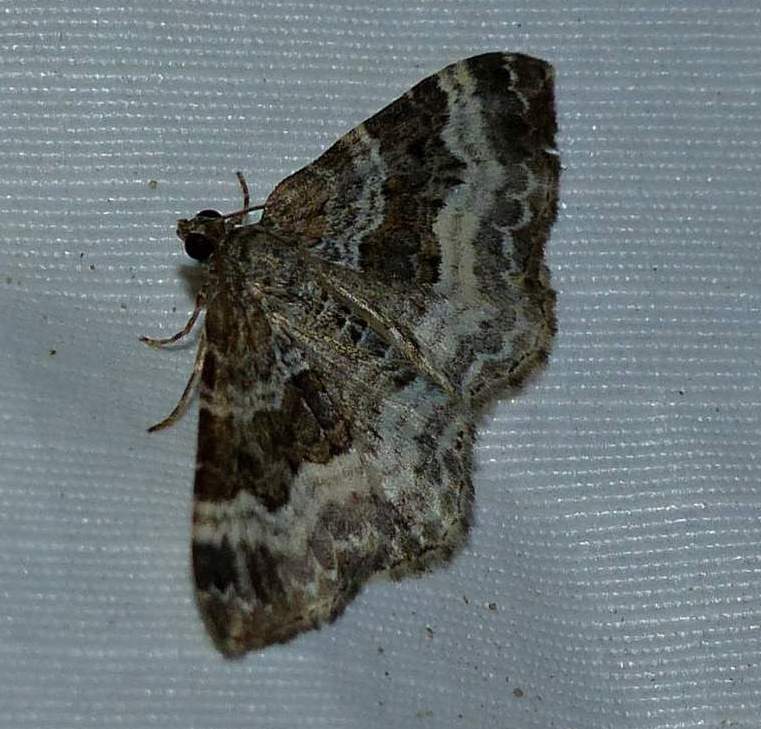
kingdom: Animalia
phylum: Arthropoda
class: Insecta
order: Lepidoptera
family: Geometridae
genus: Epirrhoe
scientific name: Epirrhoe alternata
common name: Common carpet
